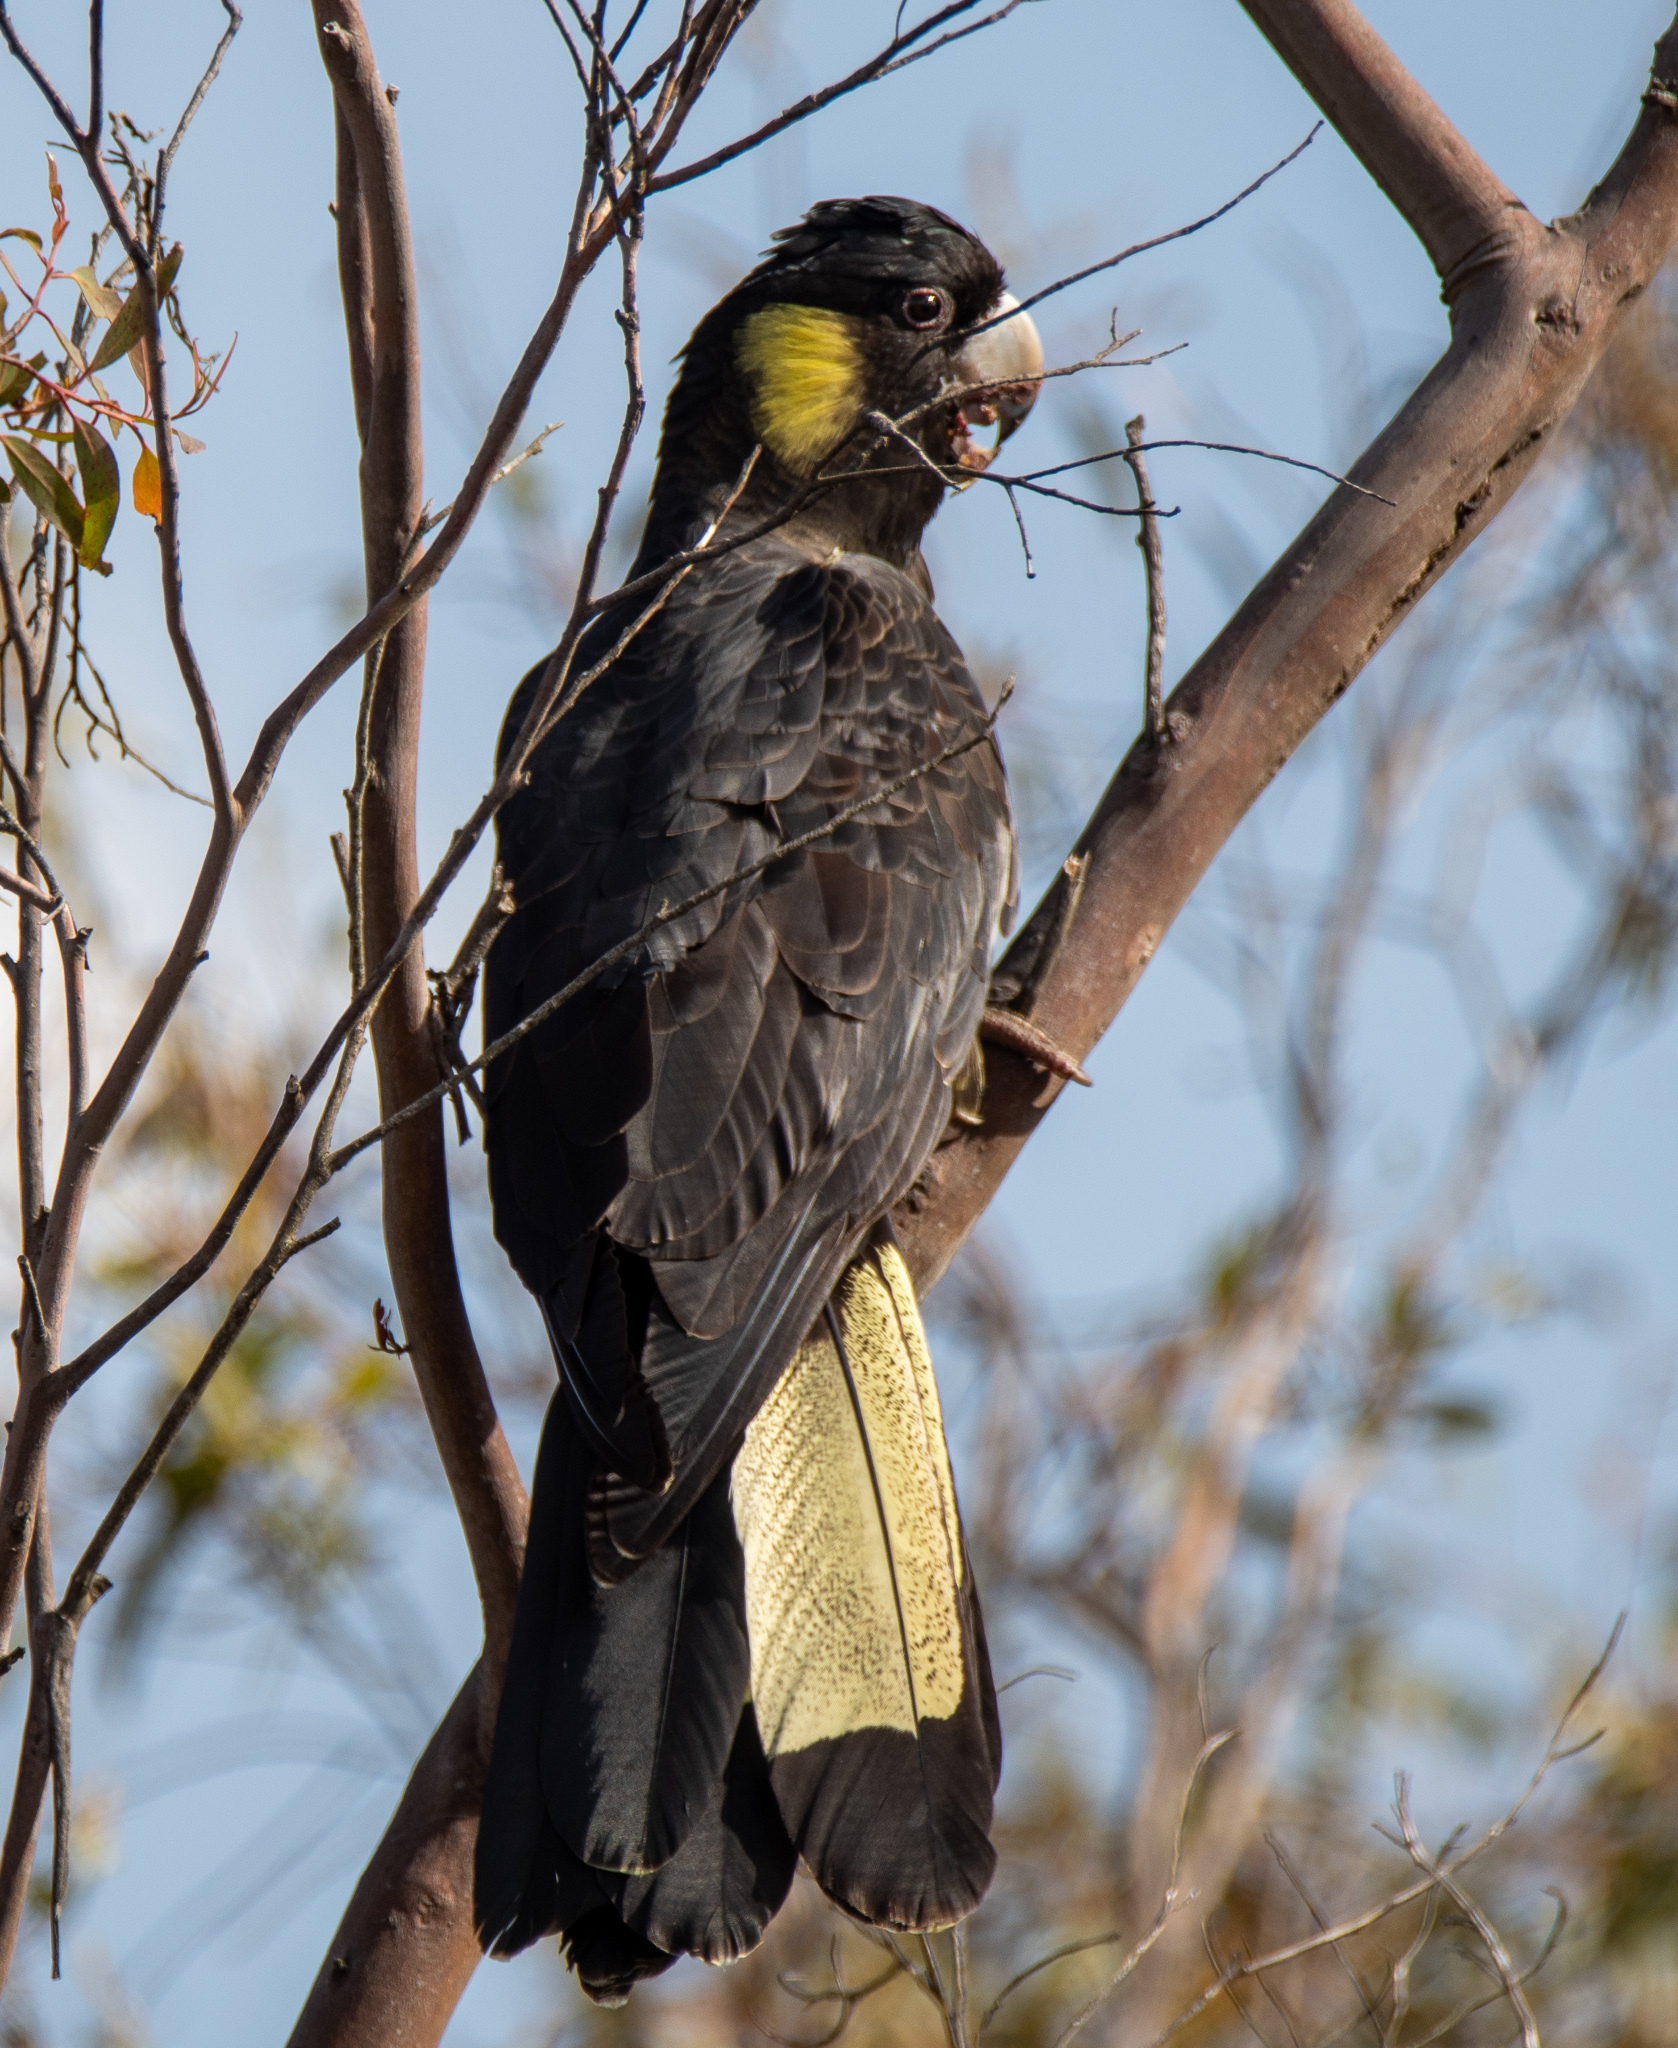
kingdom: Animalia
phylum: Chordata
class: Aves
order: Psittaciformes
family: Cacatuidae
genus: Zanda
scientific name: Zanda funerea
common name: Yellow-tailed black-cockatoo
